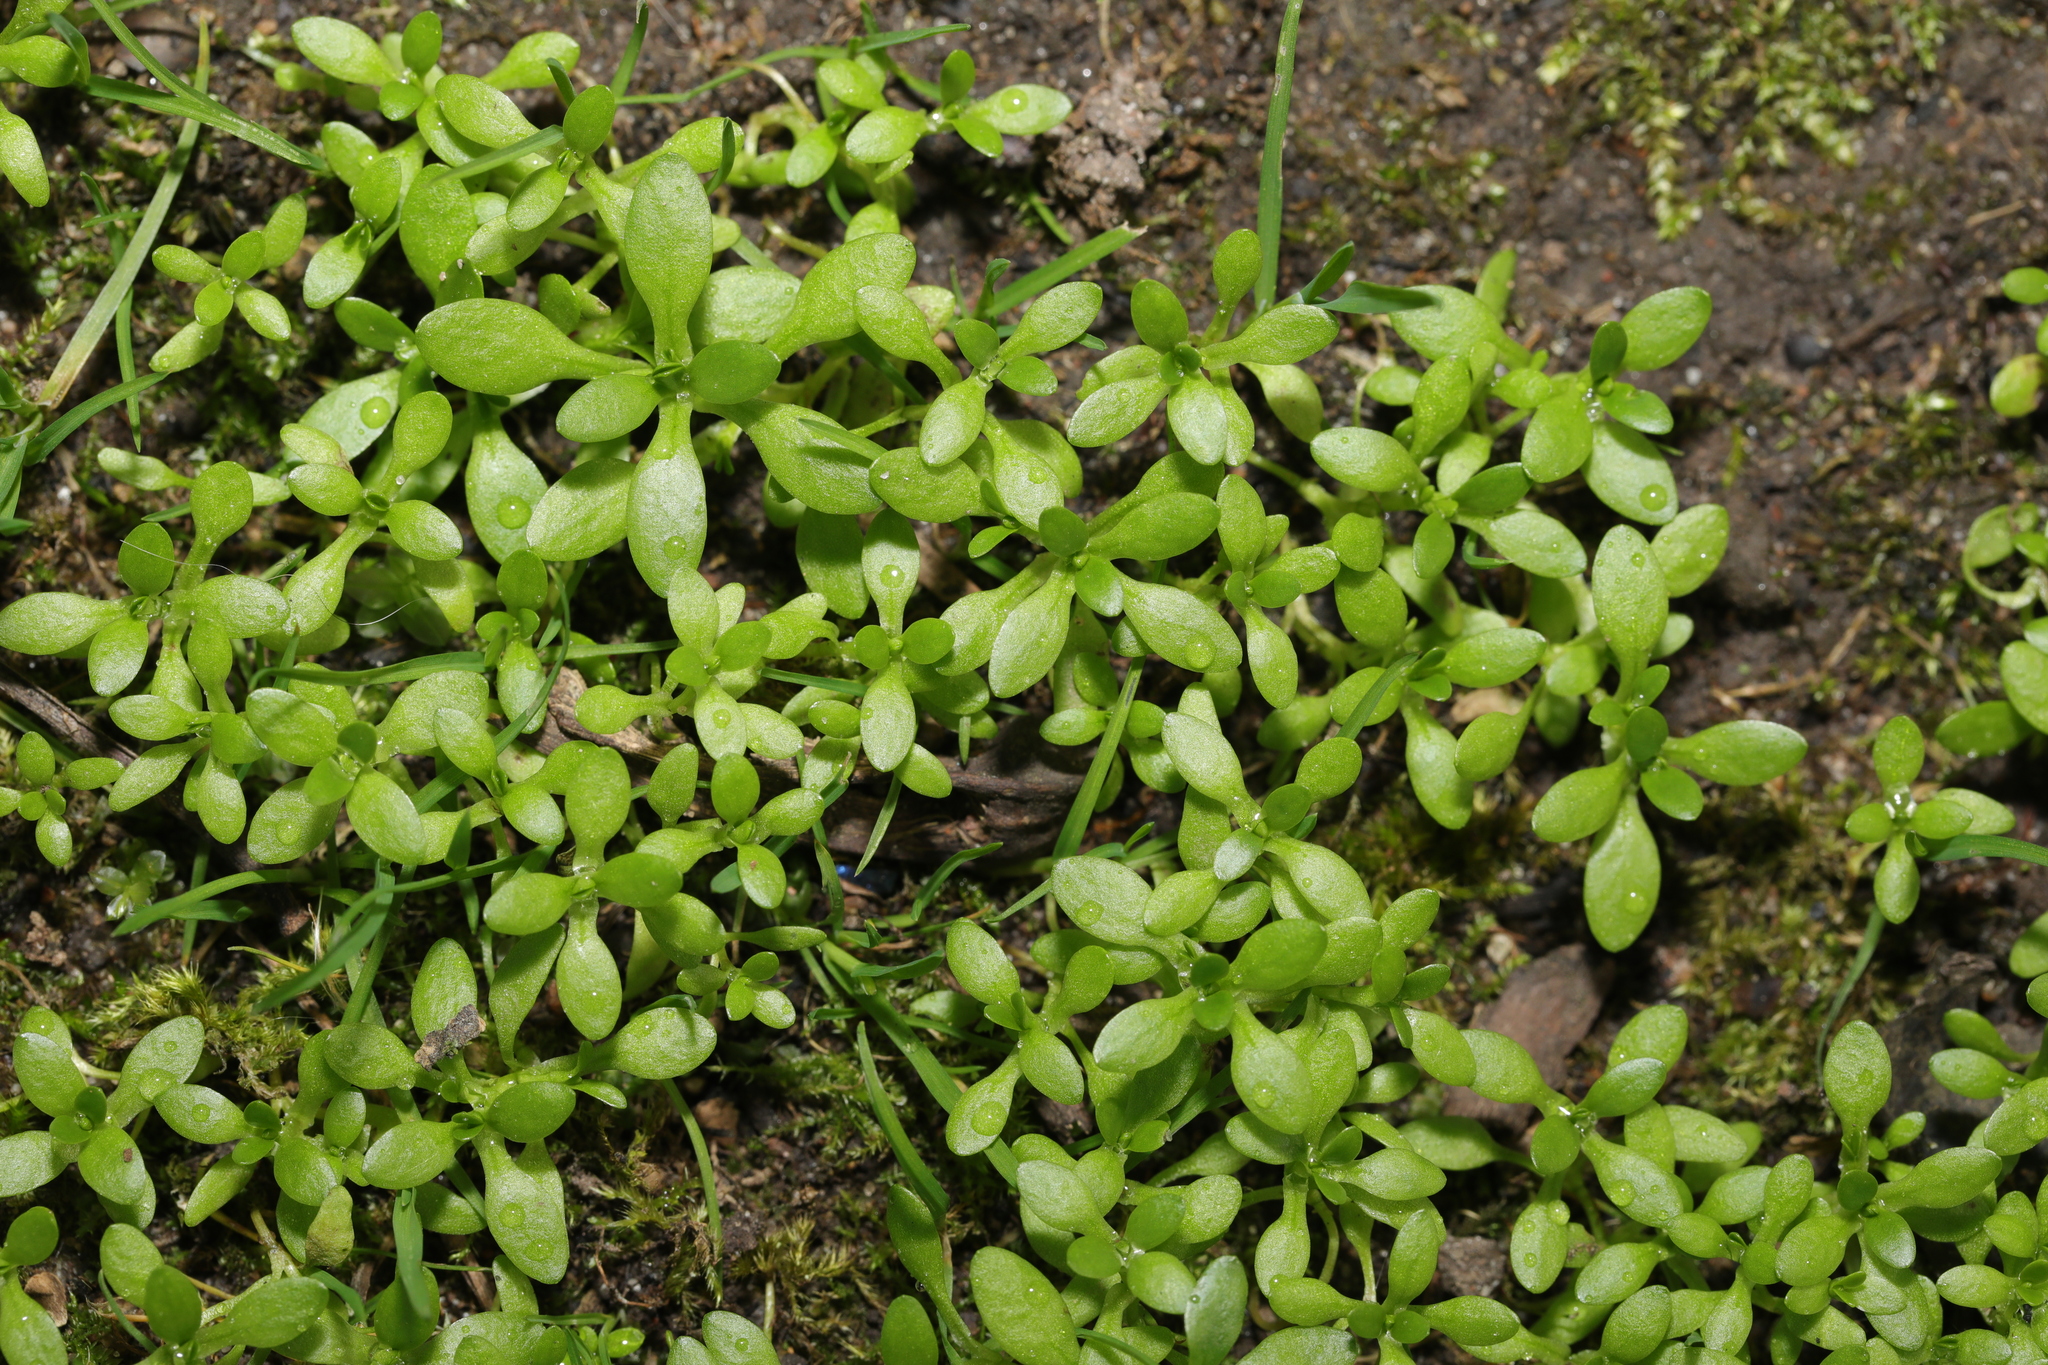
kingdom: Plantae
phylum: Tracheophyta
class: Magnoliopsida
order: Caryophyllales
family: Montiaceae
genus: Montia
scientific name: Montia fontana
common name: Blinks
